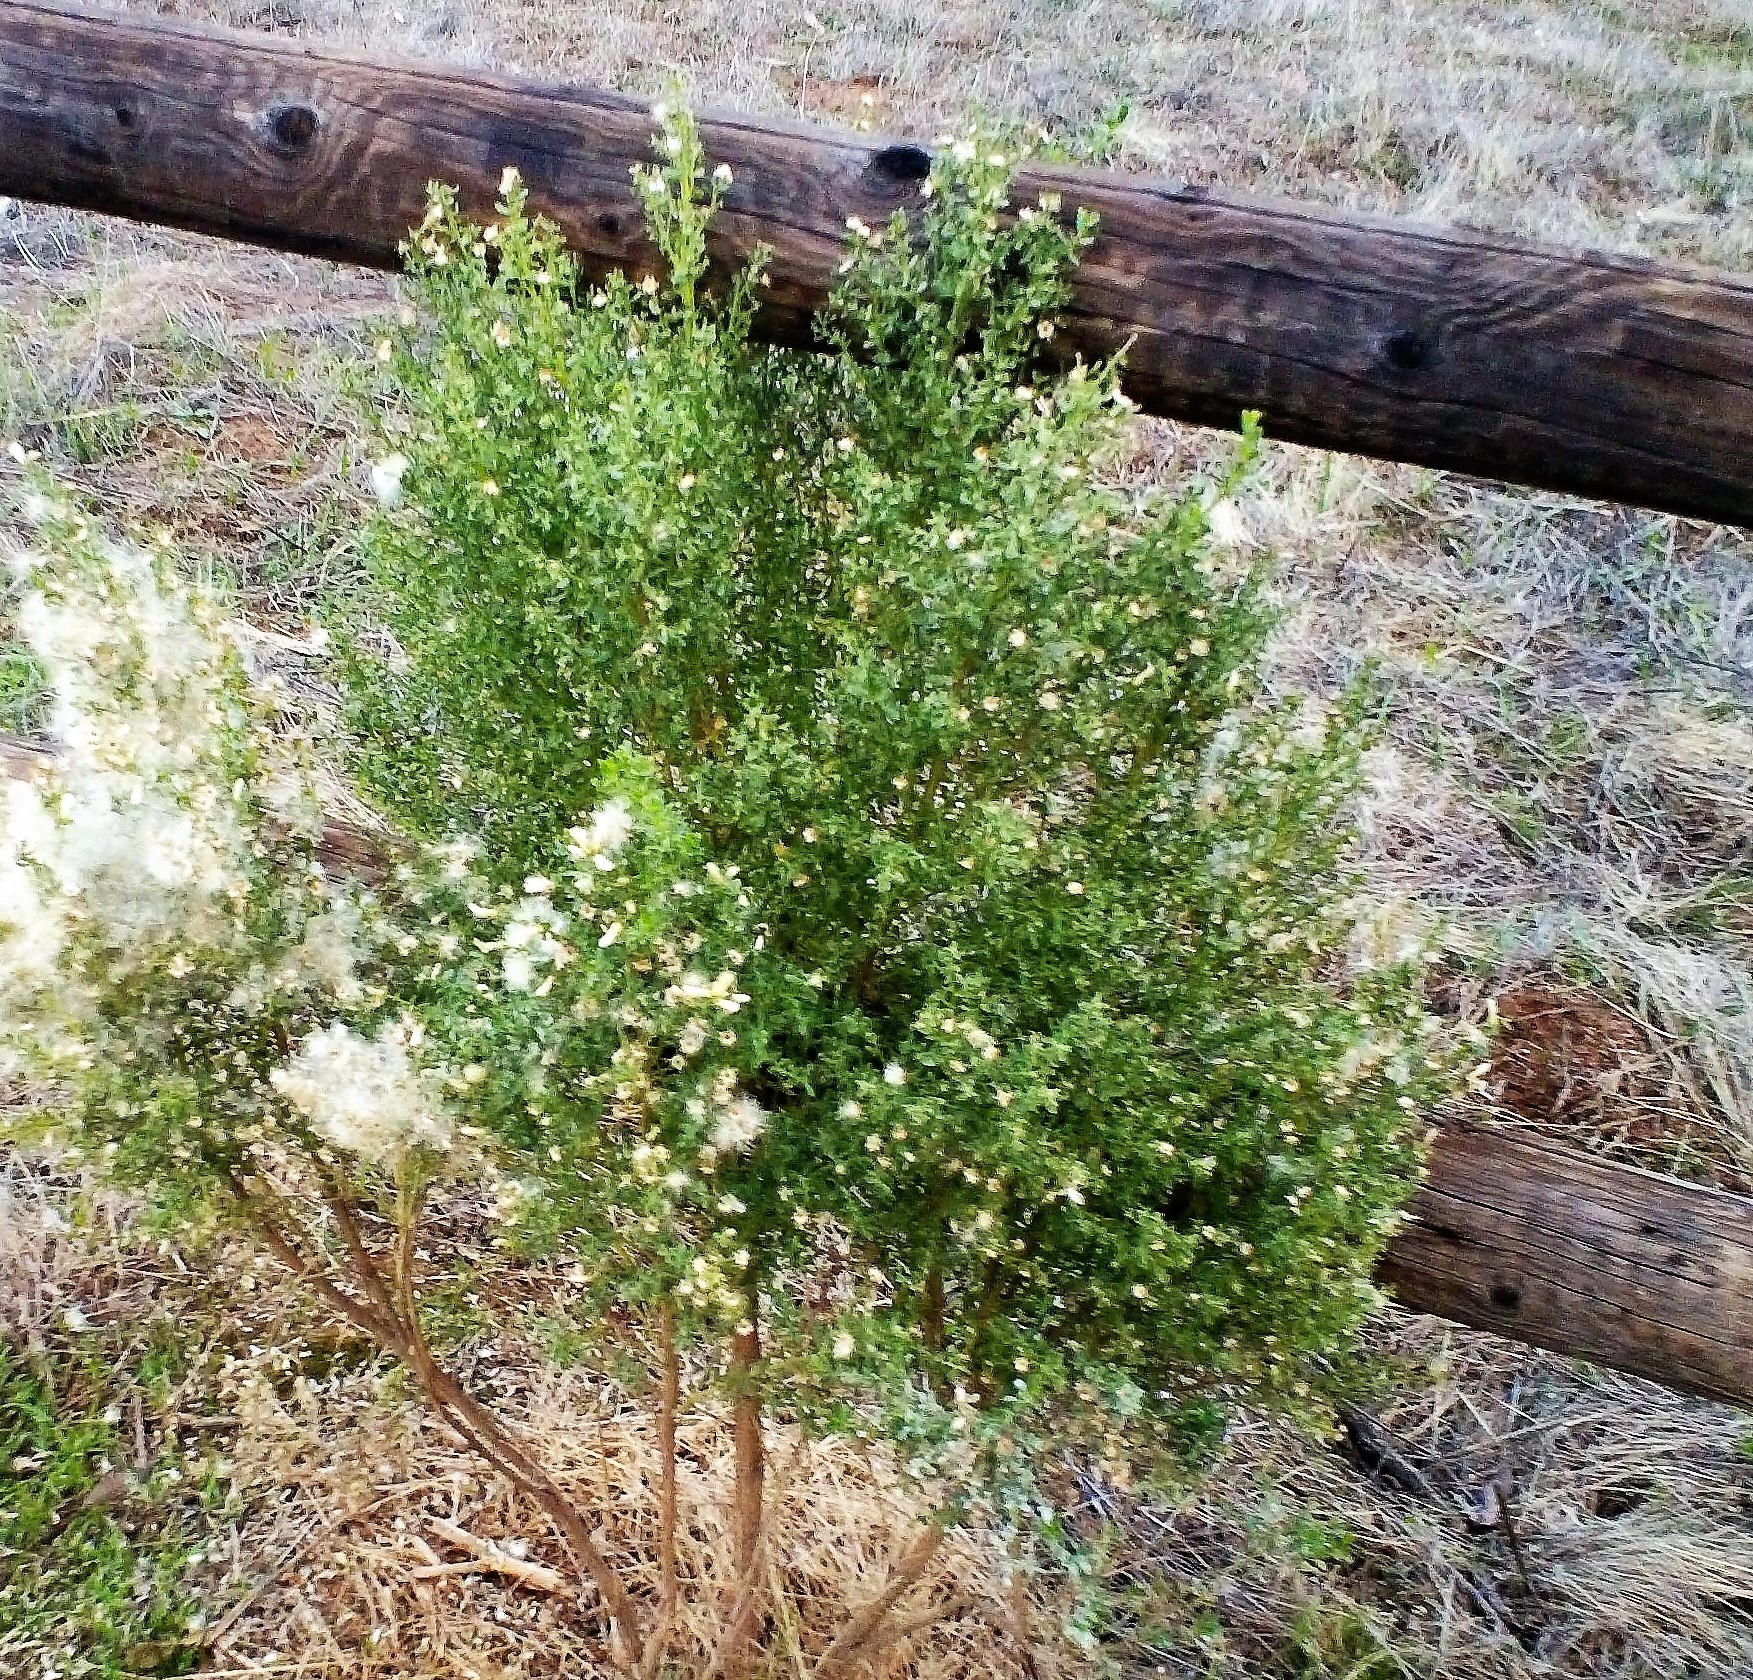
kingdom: Plantae
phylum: Tracheophyta
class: Magnoliopsida
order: Asterales
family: Asteraceae
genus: Baccharis
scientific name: Baccharis pilularis
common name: Coyotebrush
